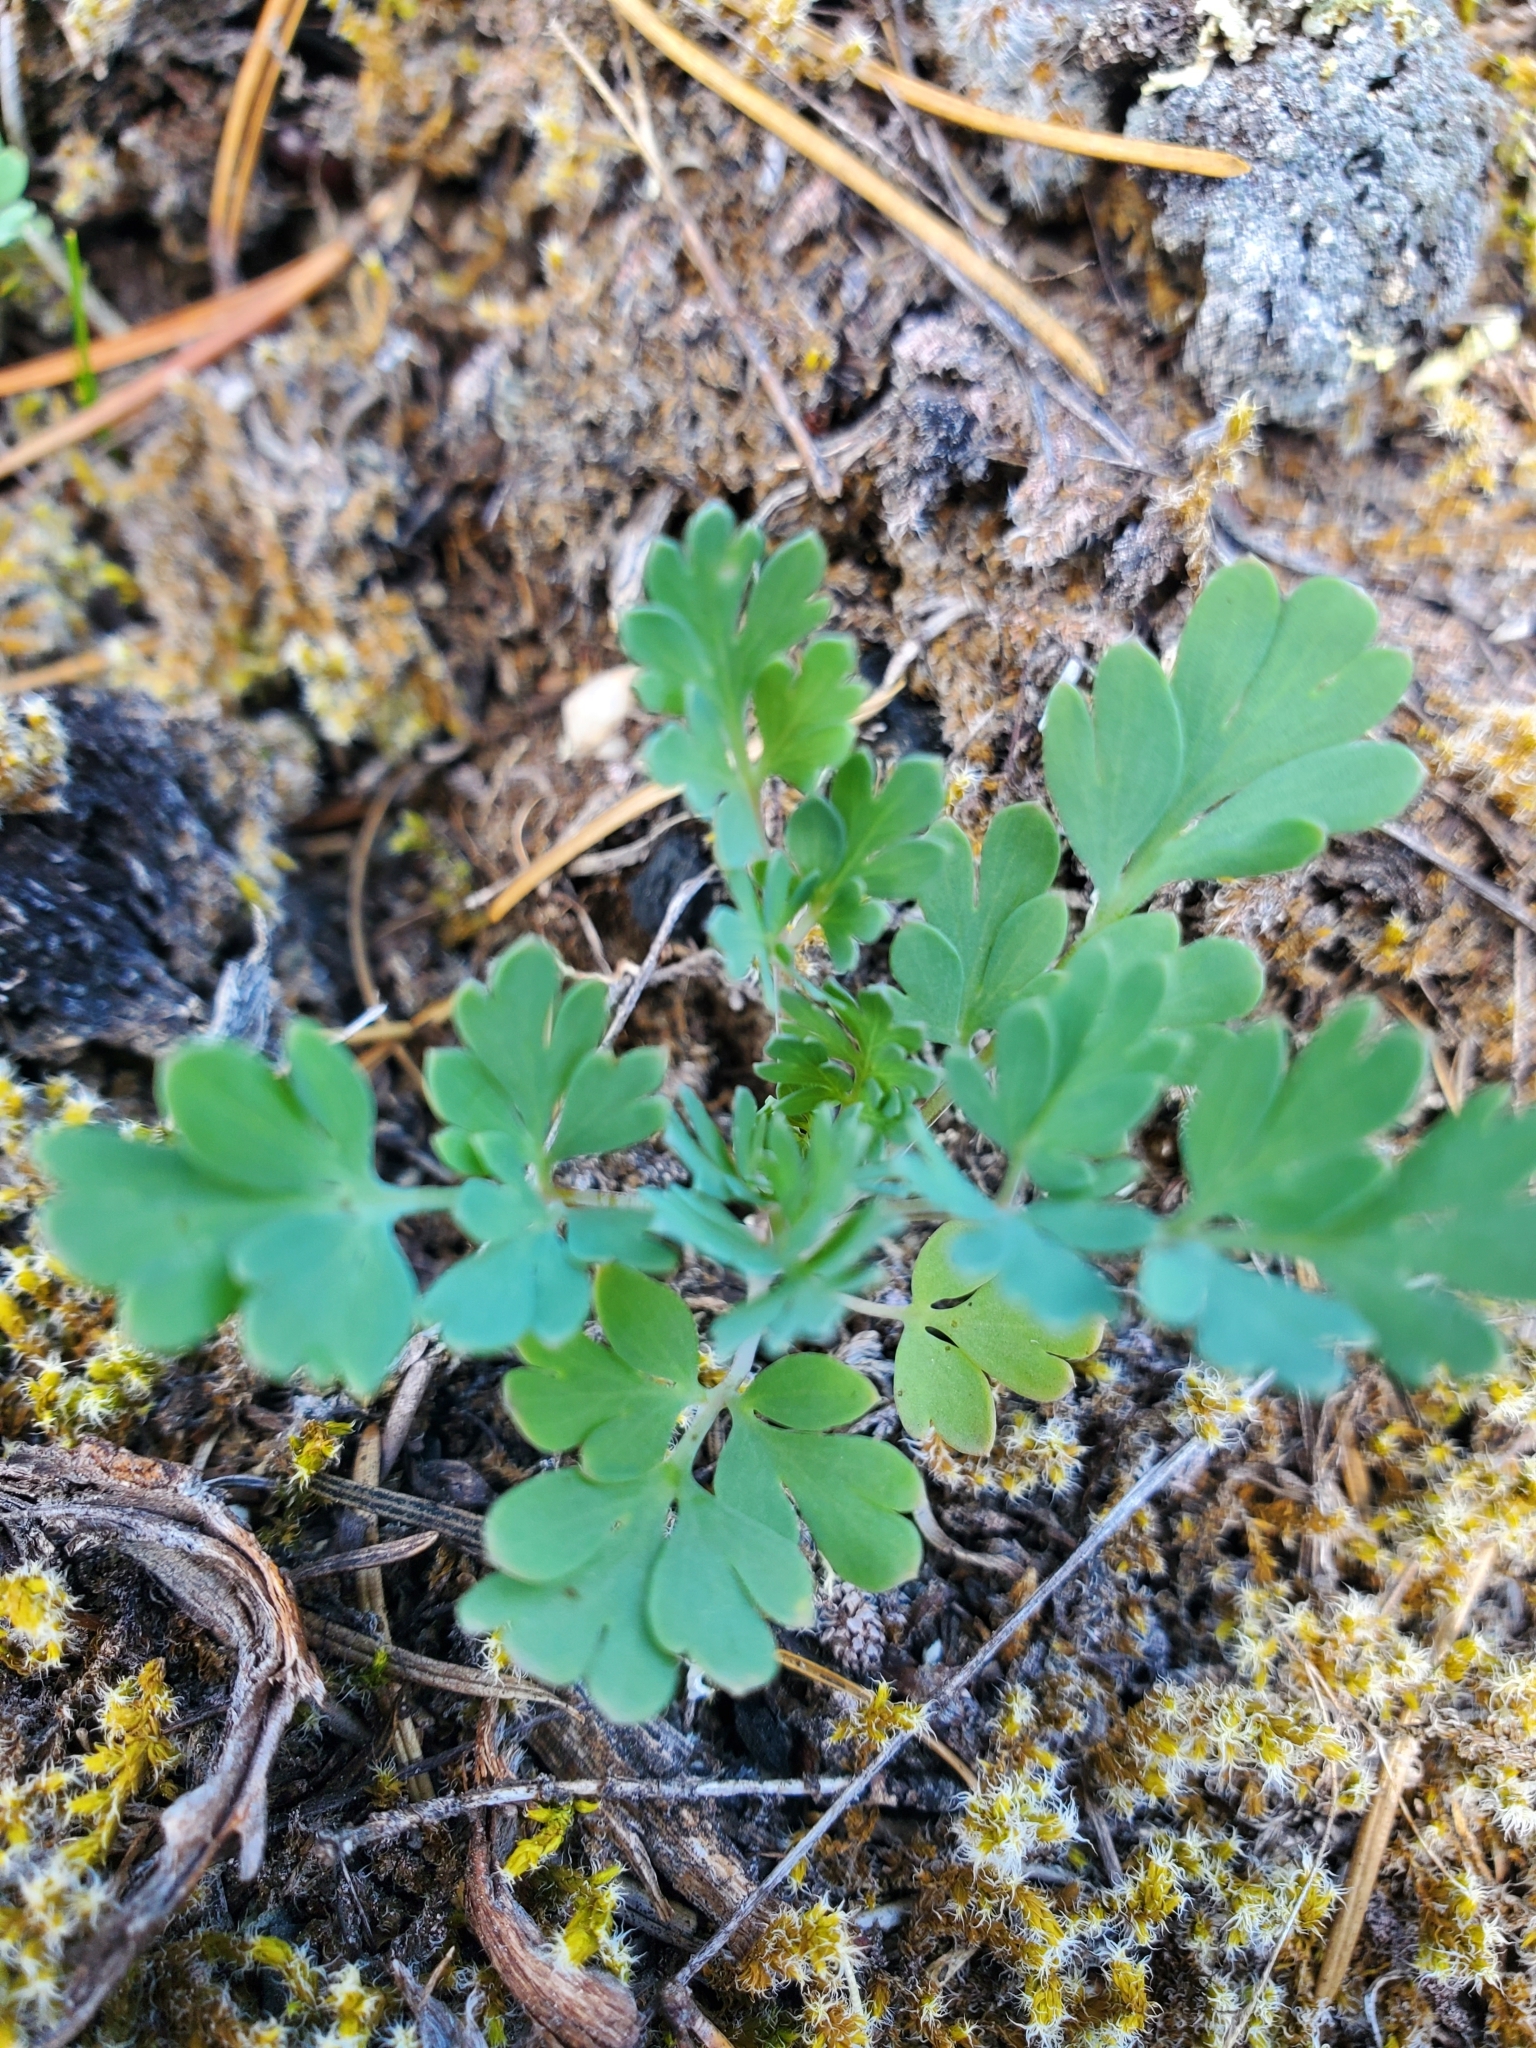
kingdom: Plantae
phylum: Tracheophyta
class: Magnoliopsida
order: Ranunculales
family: Papaveraceae
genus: Capnoides
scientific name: Capnoides sempervirens
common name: Rock harlequin
